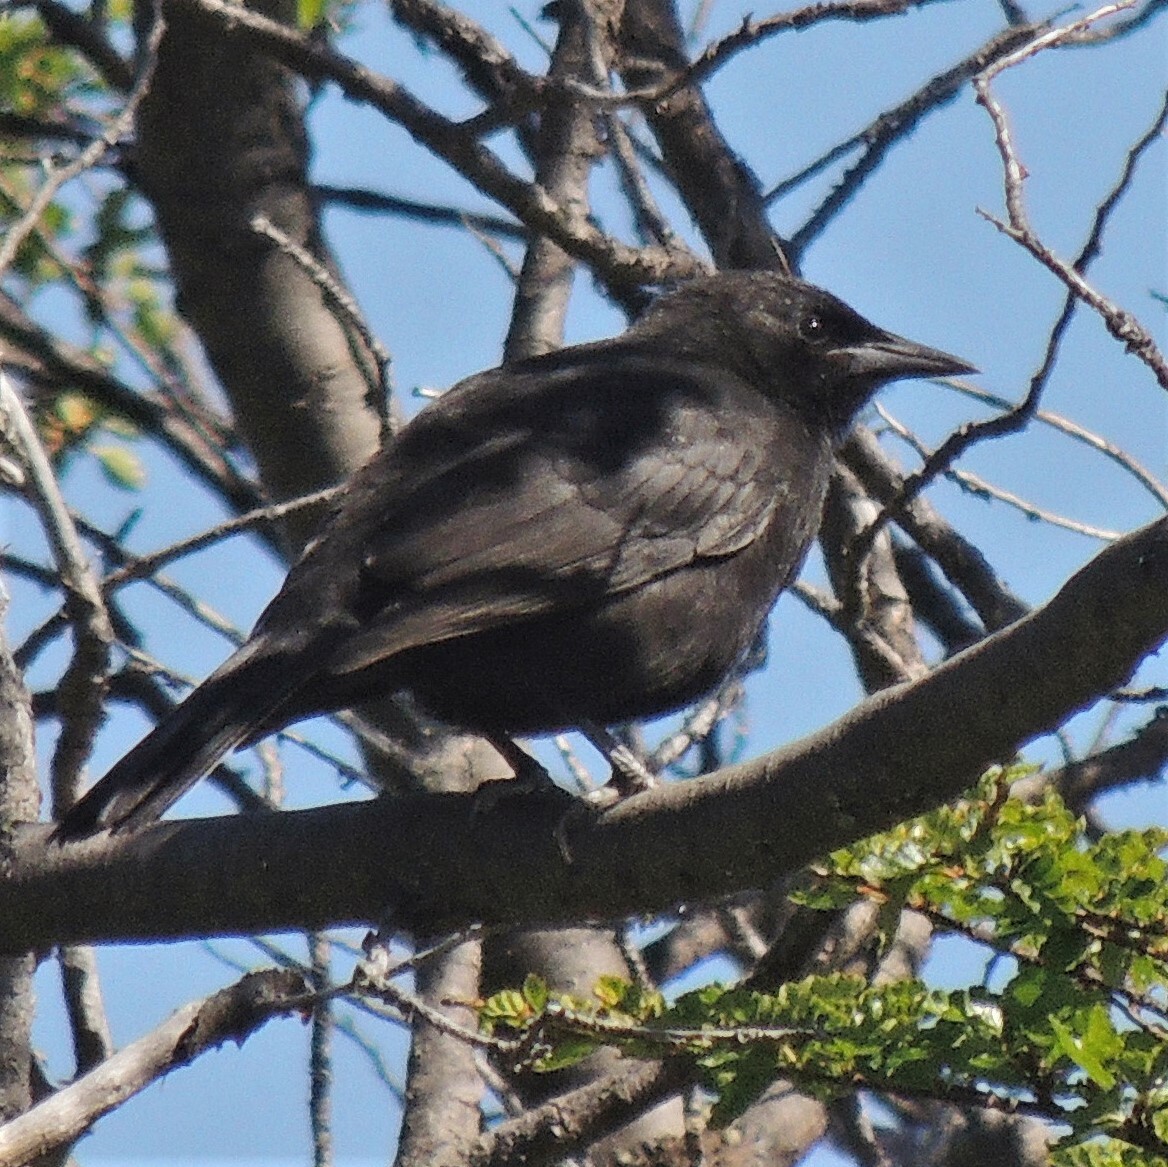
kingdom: Animalia
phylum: Chordata
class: Aves
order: Passeriformes
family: Icteridae
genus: Curaeus
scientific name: Curaeus curaeus
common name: Austral blackbird
